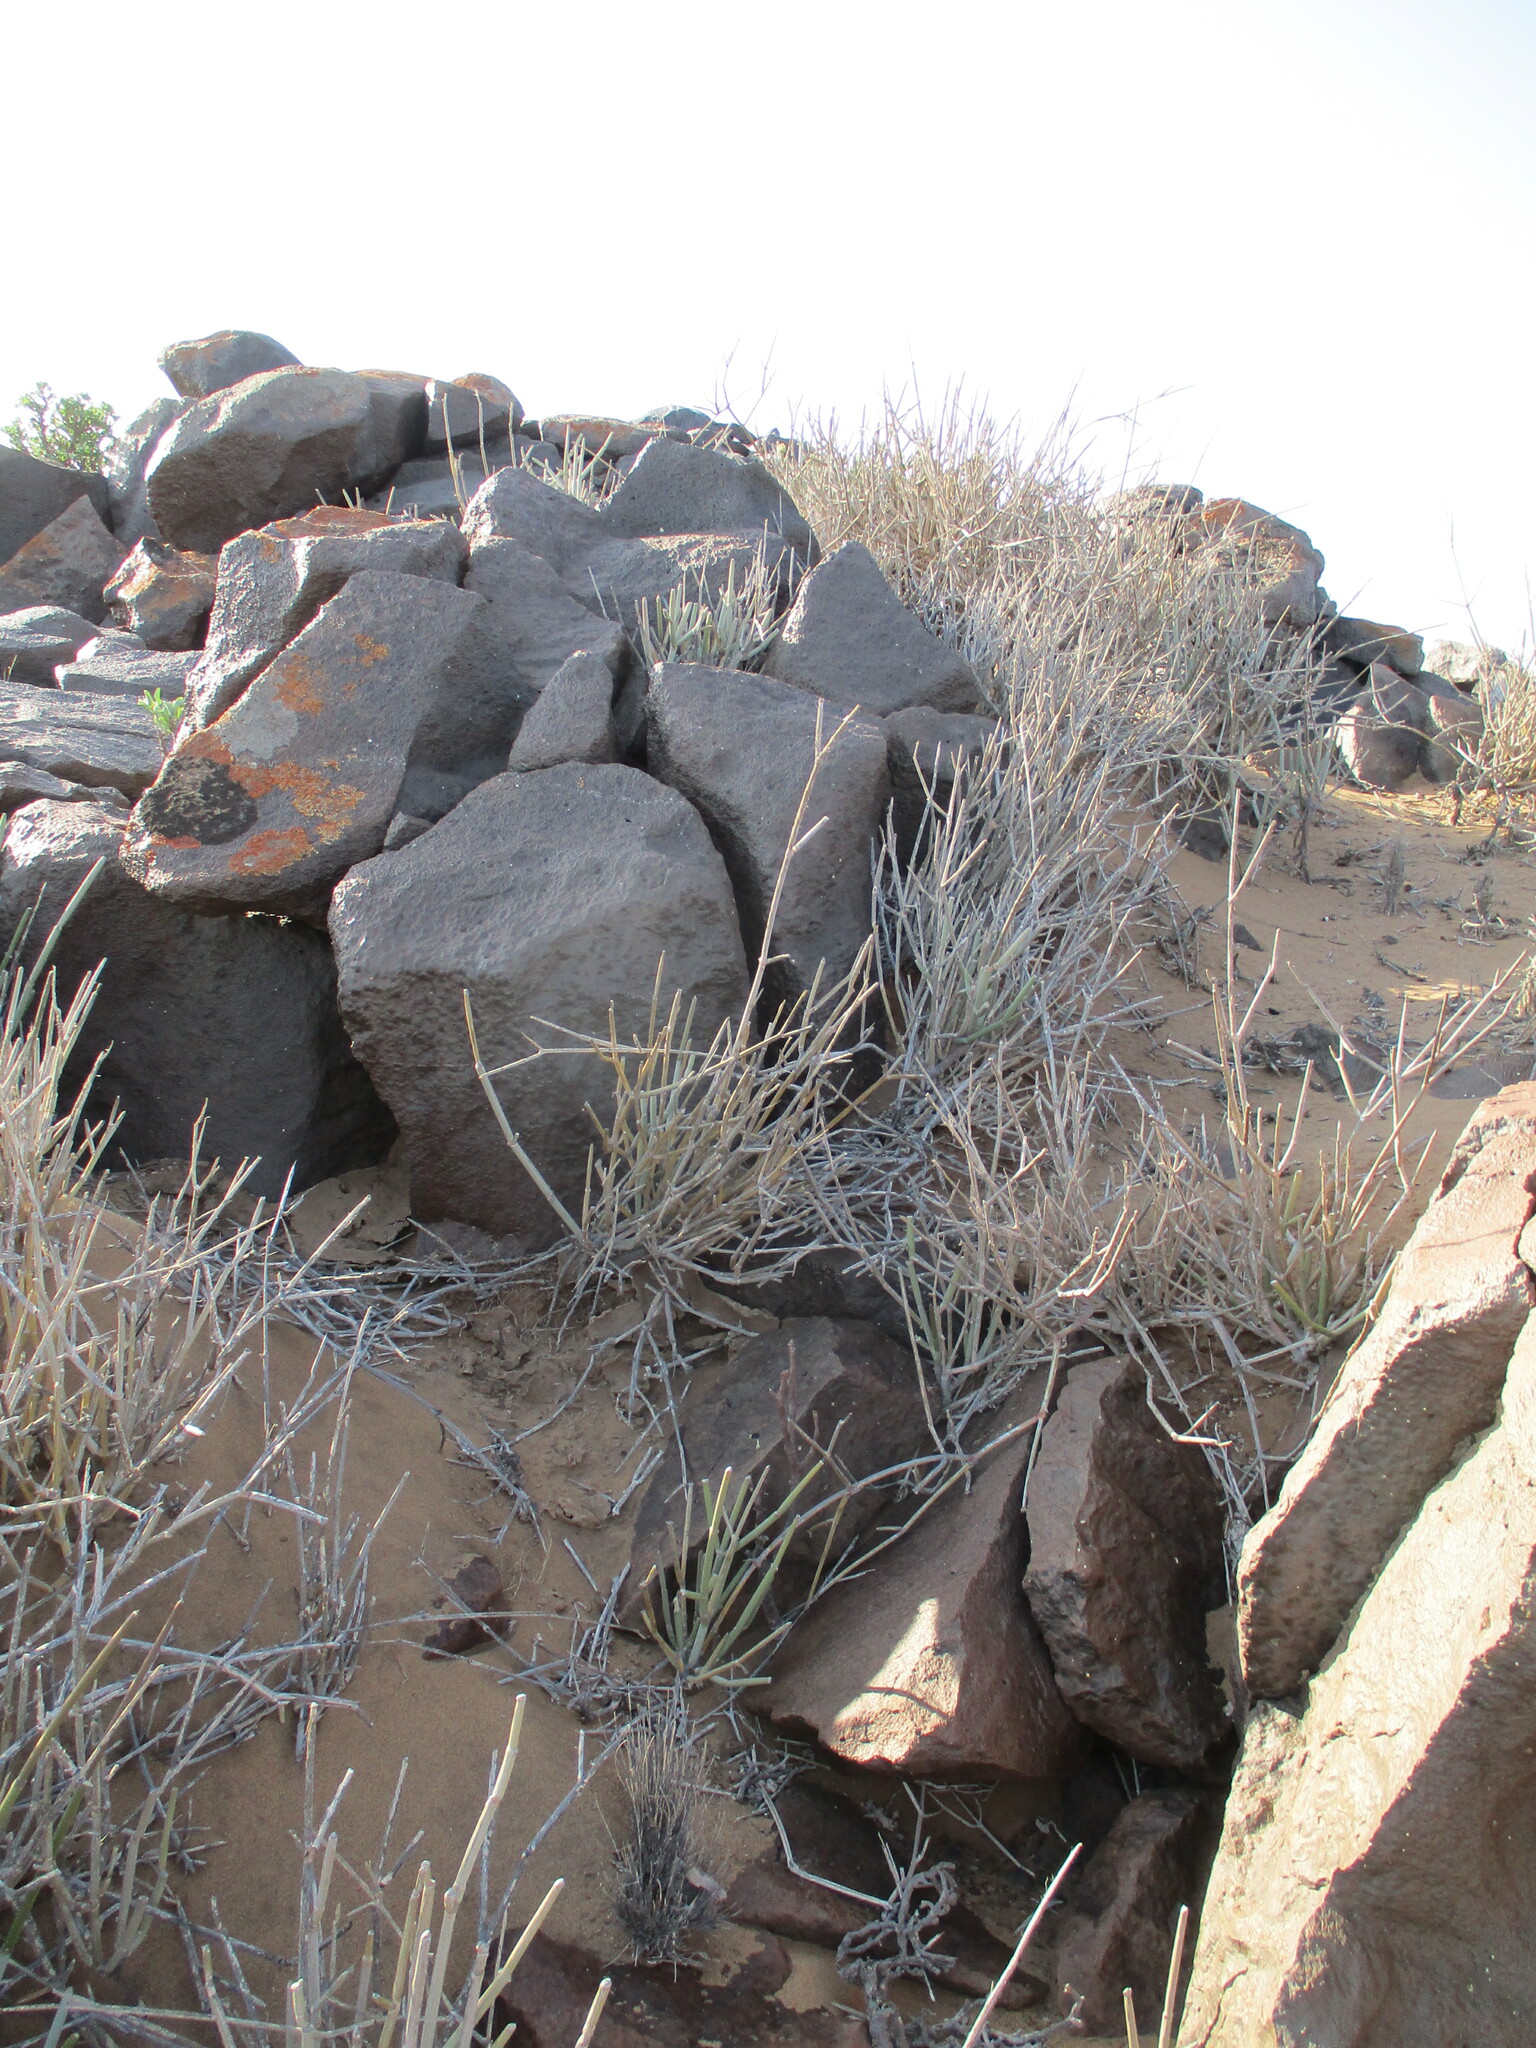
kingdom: Plantae
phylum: Tracheophyta
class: Magnoliopsida
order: Gentianales
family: Apocynaceae
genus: Cynanchum
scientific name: Cynanchum viminale
